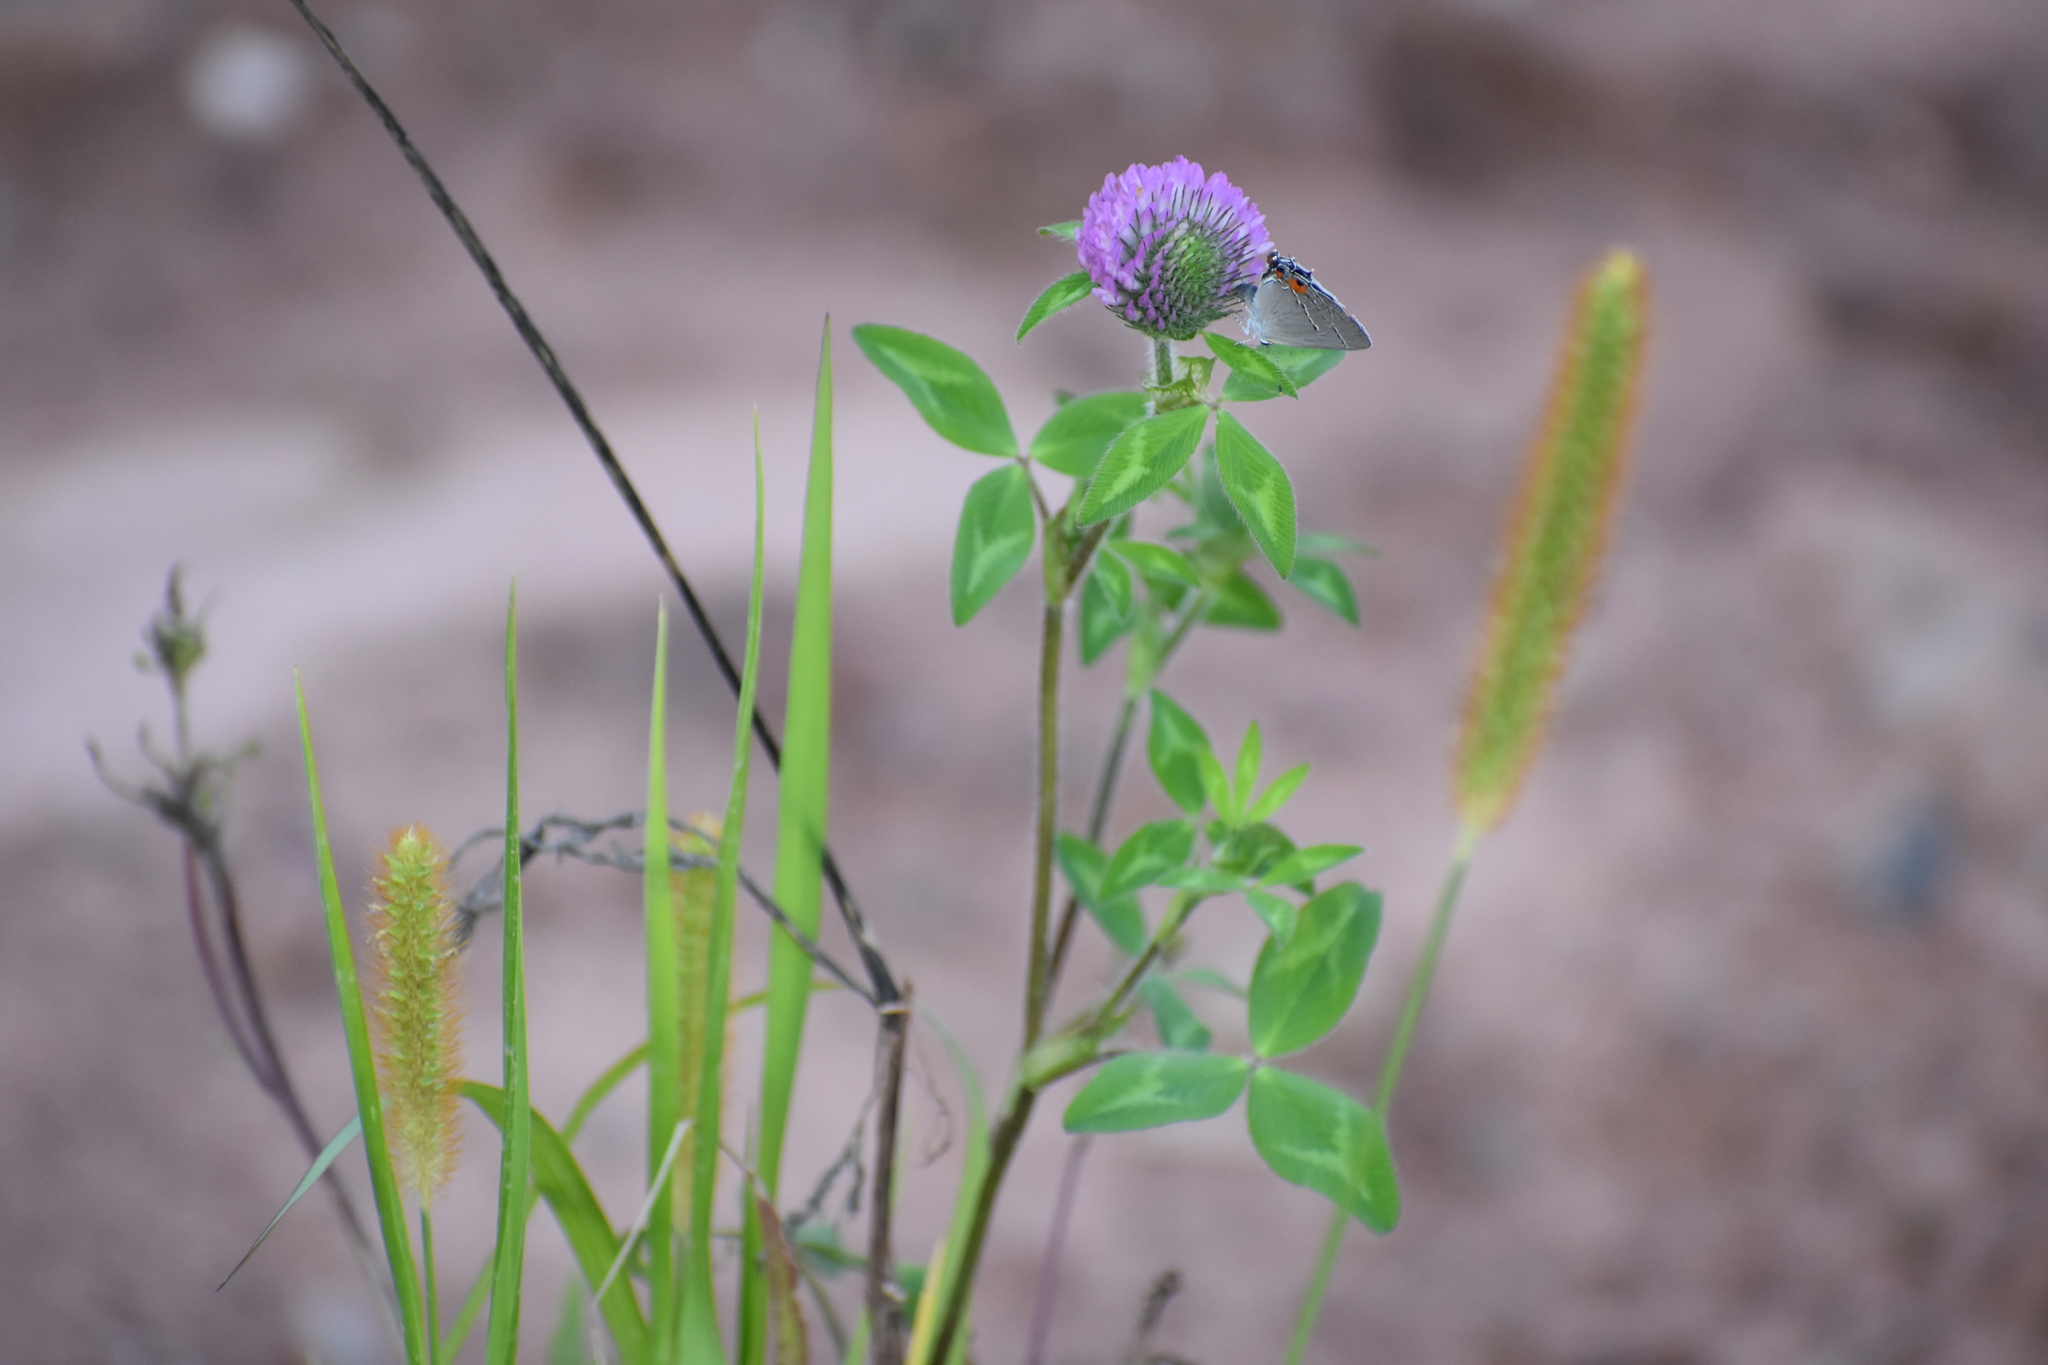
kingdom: Plantae
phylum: Tracheophyta
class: Magnoliopsida
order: Fabales
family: Fabaceae
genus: Trifolium
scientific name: Trifolium pratense
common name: Red clover
